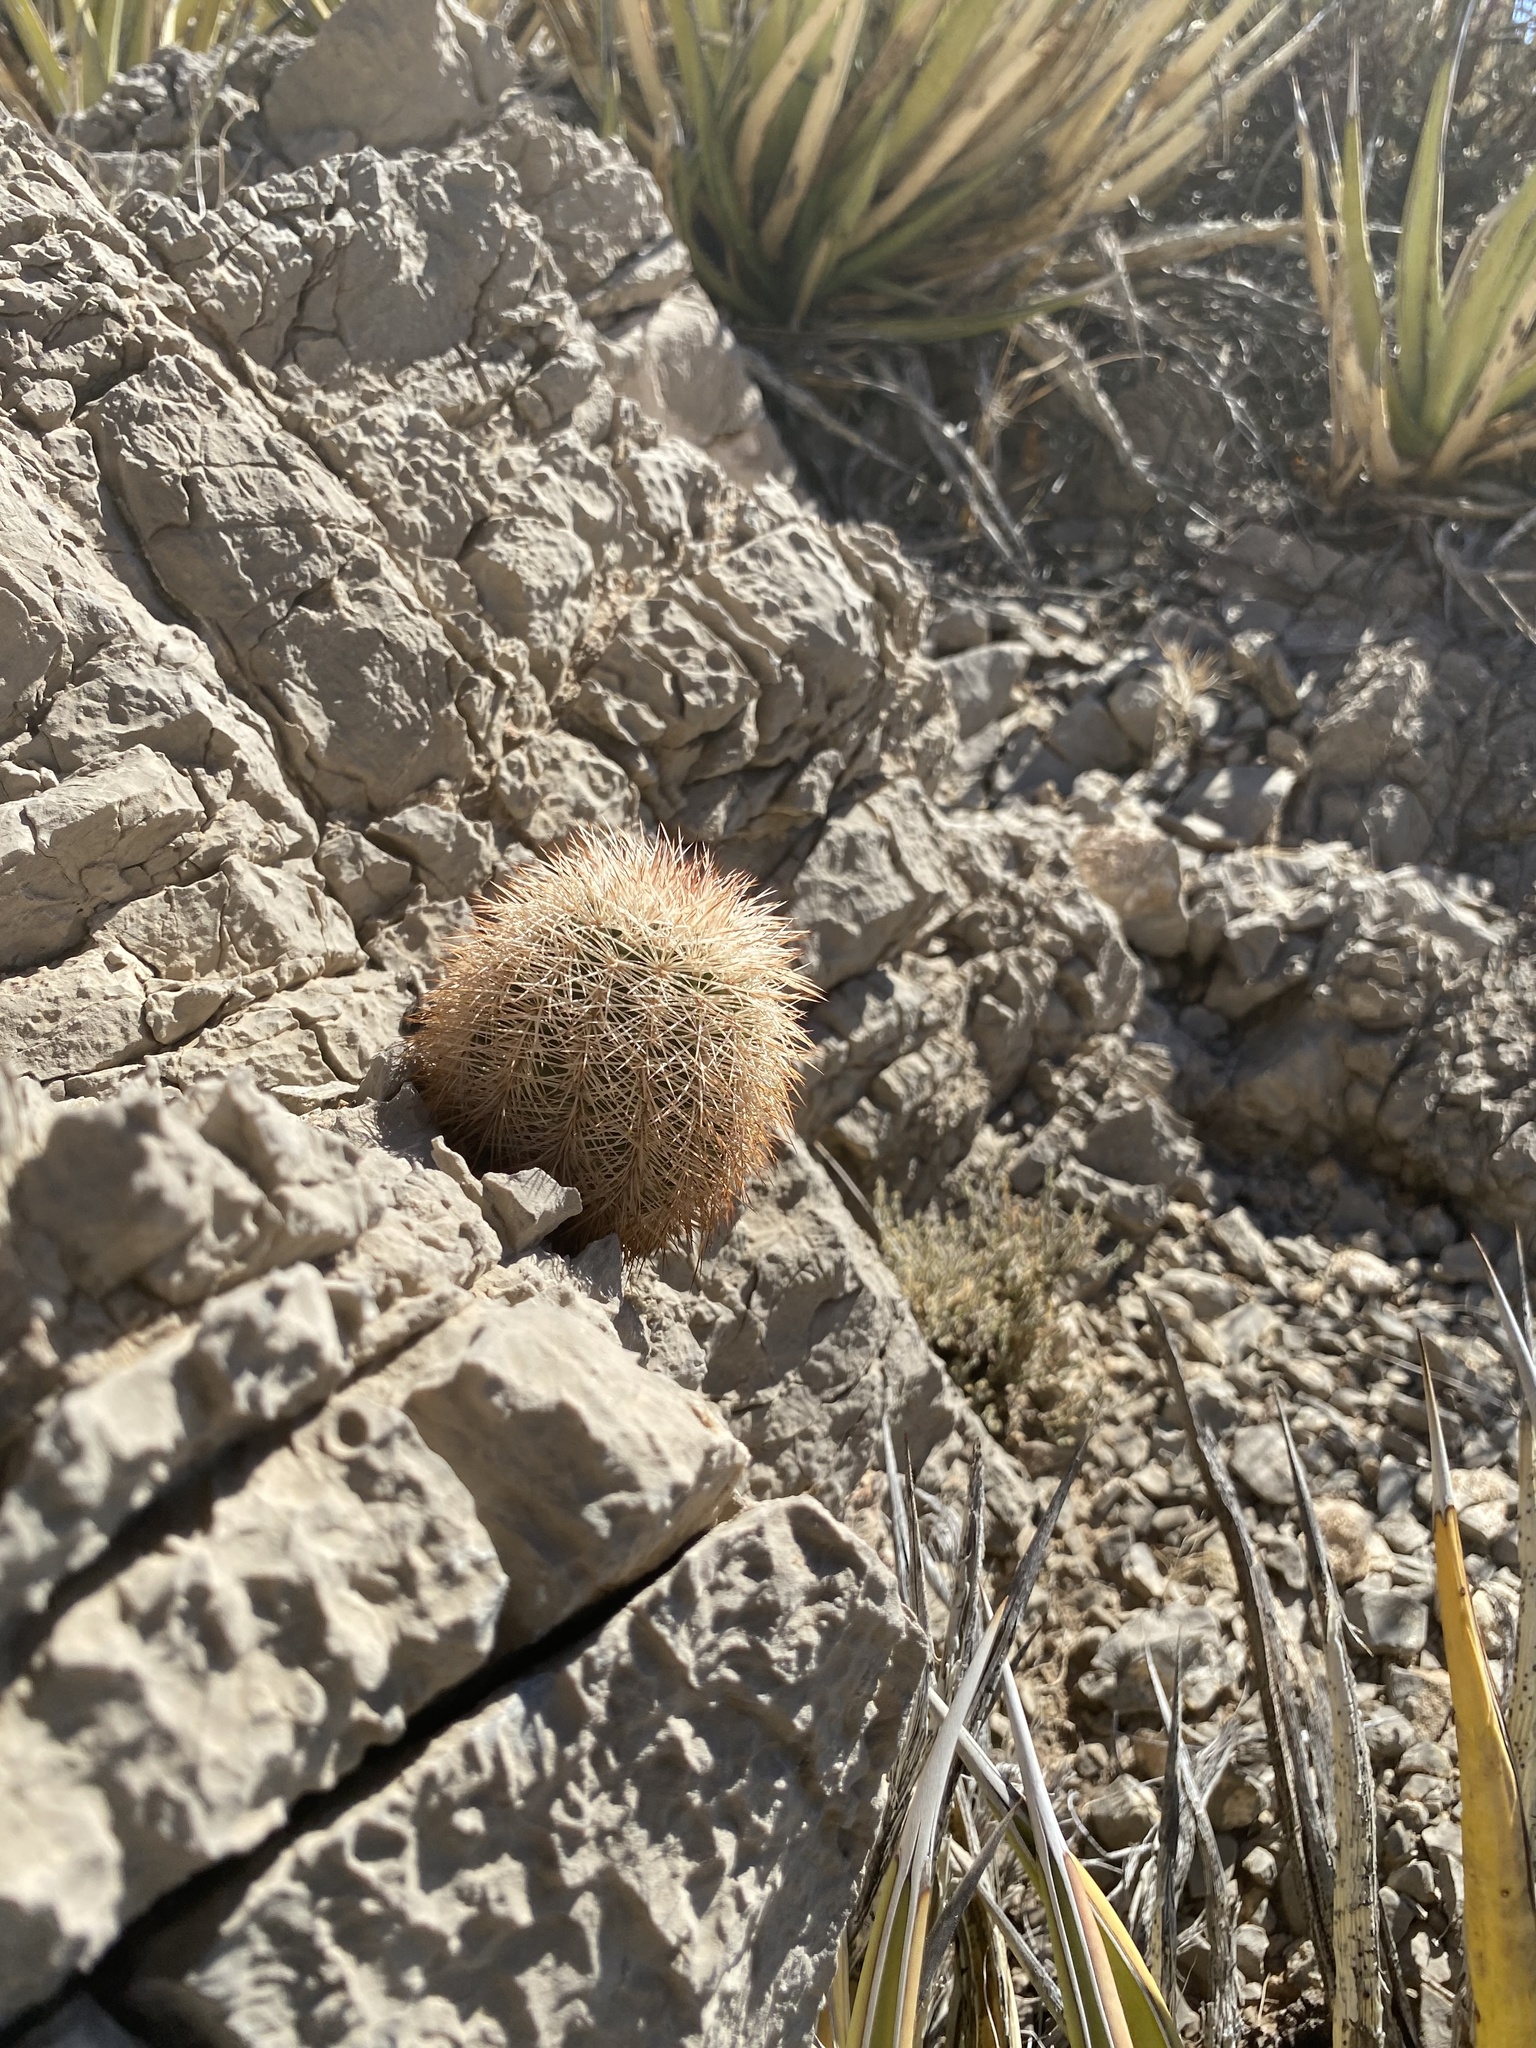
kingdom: Plantae
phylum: Tracheophyta
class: Magnoliopsida
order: Caryophyllales
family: Cactaceae
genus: Echinocereus
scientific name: Echinocereus dasyacanthus
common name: Spiny hedgehog cactus
